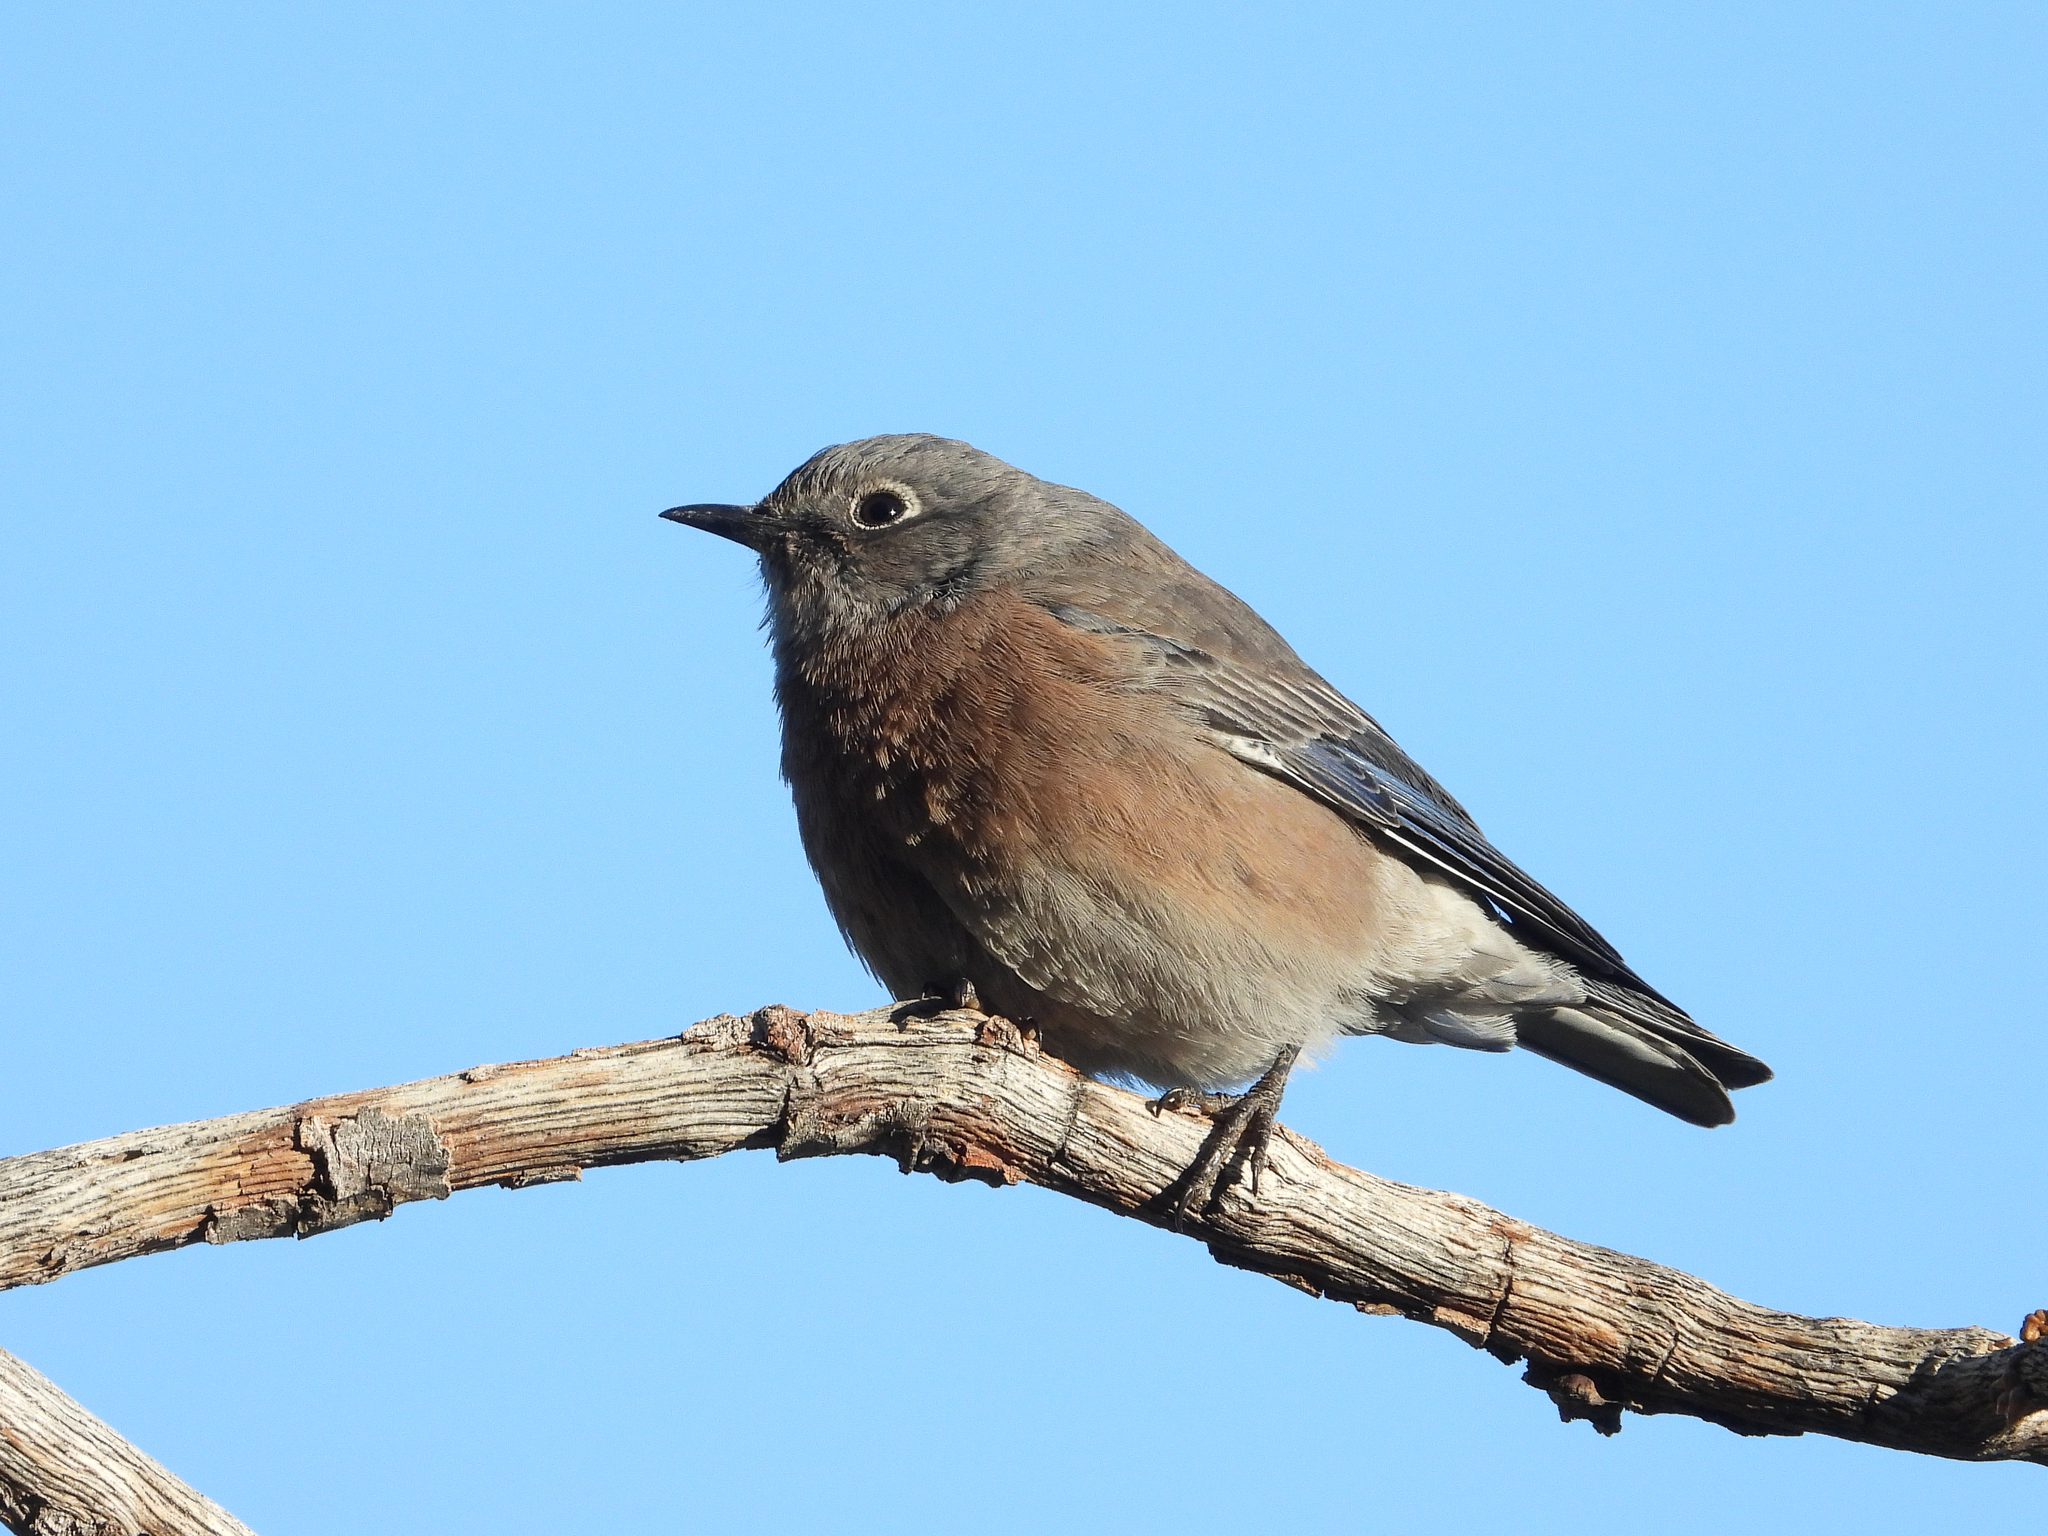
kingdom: Animalia
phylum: Chordata
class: Aves
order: Passeriformes
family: Turdidae
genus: Sialia
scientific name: Sialia mexicana
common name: Western bluebird
